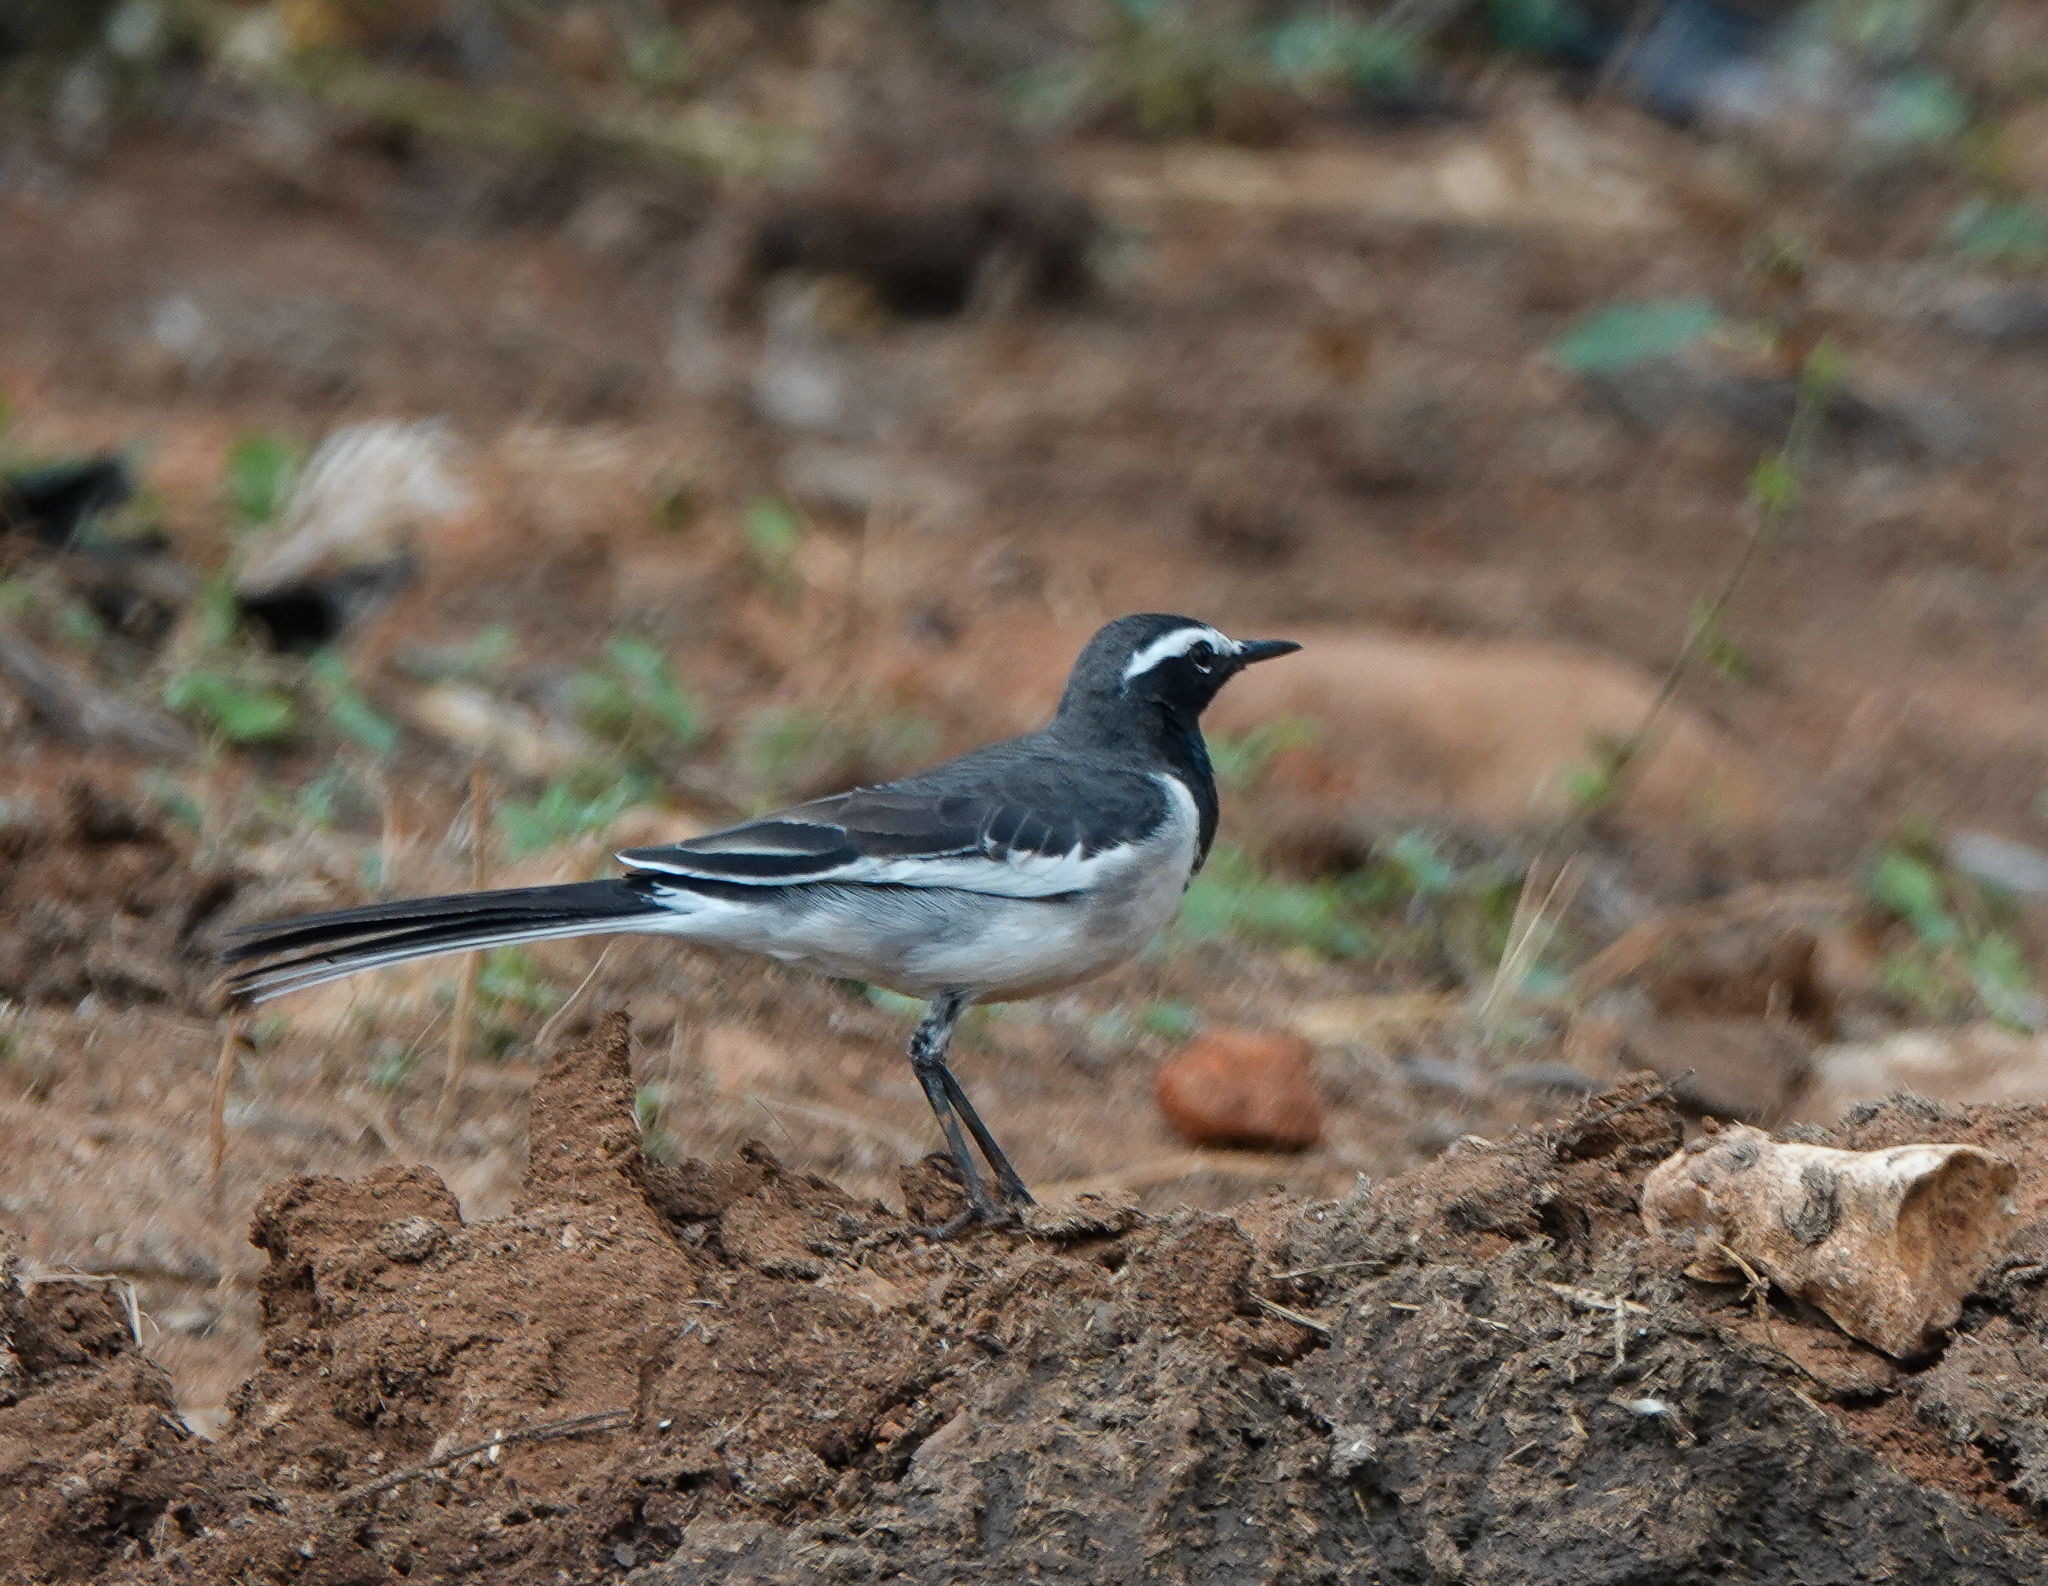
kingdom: Animalia
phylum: Chordata
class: Aves
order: Passeriformes
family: Motacillidae
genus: Motacilla
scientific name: Motacilla maderaspatensis
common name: White-browed wagtail
